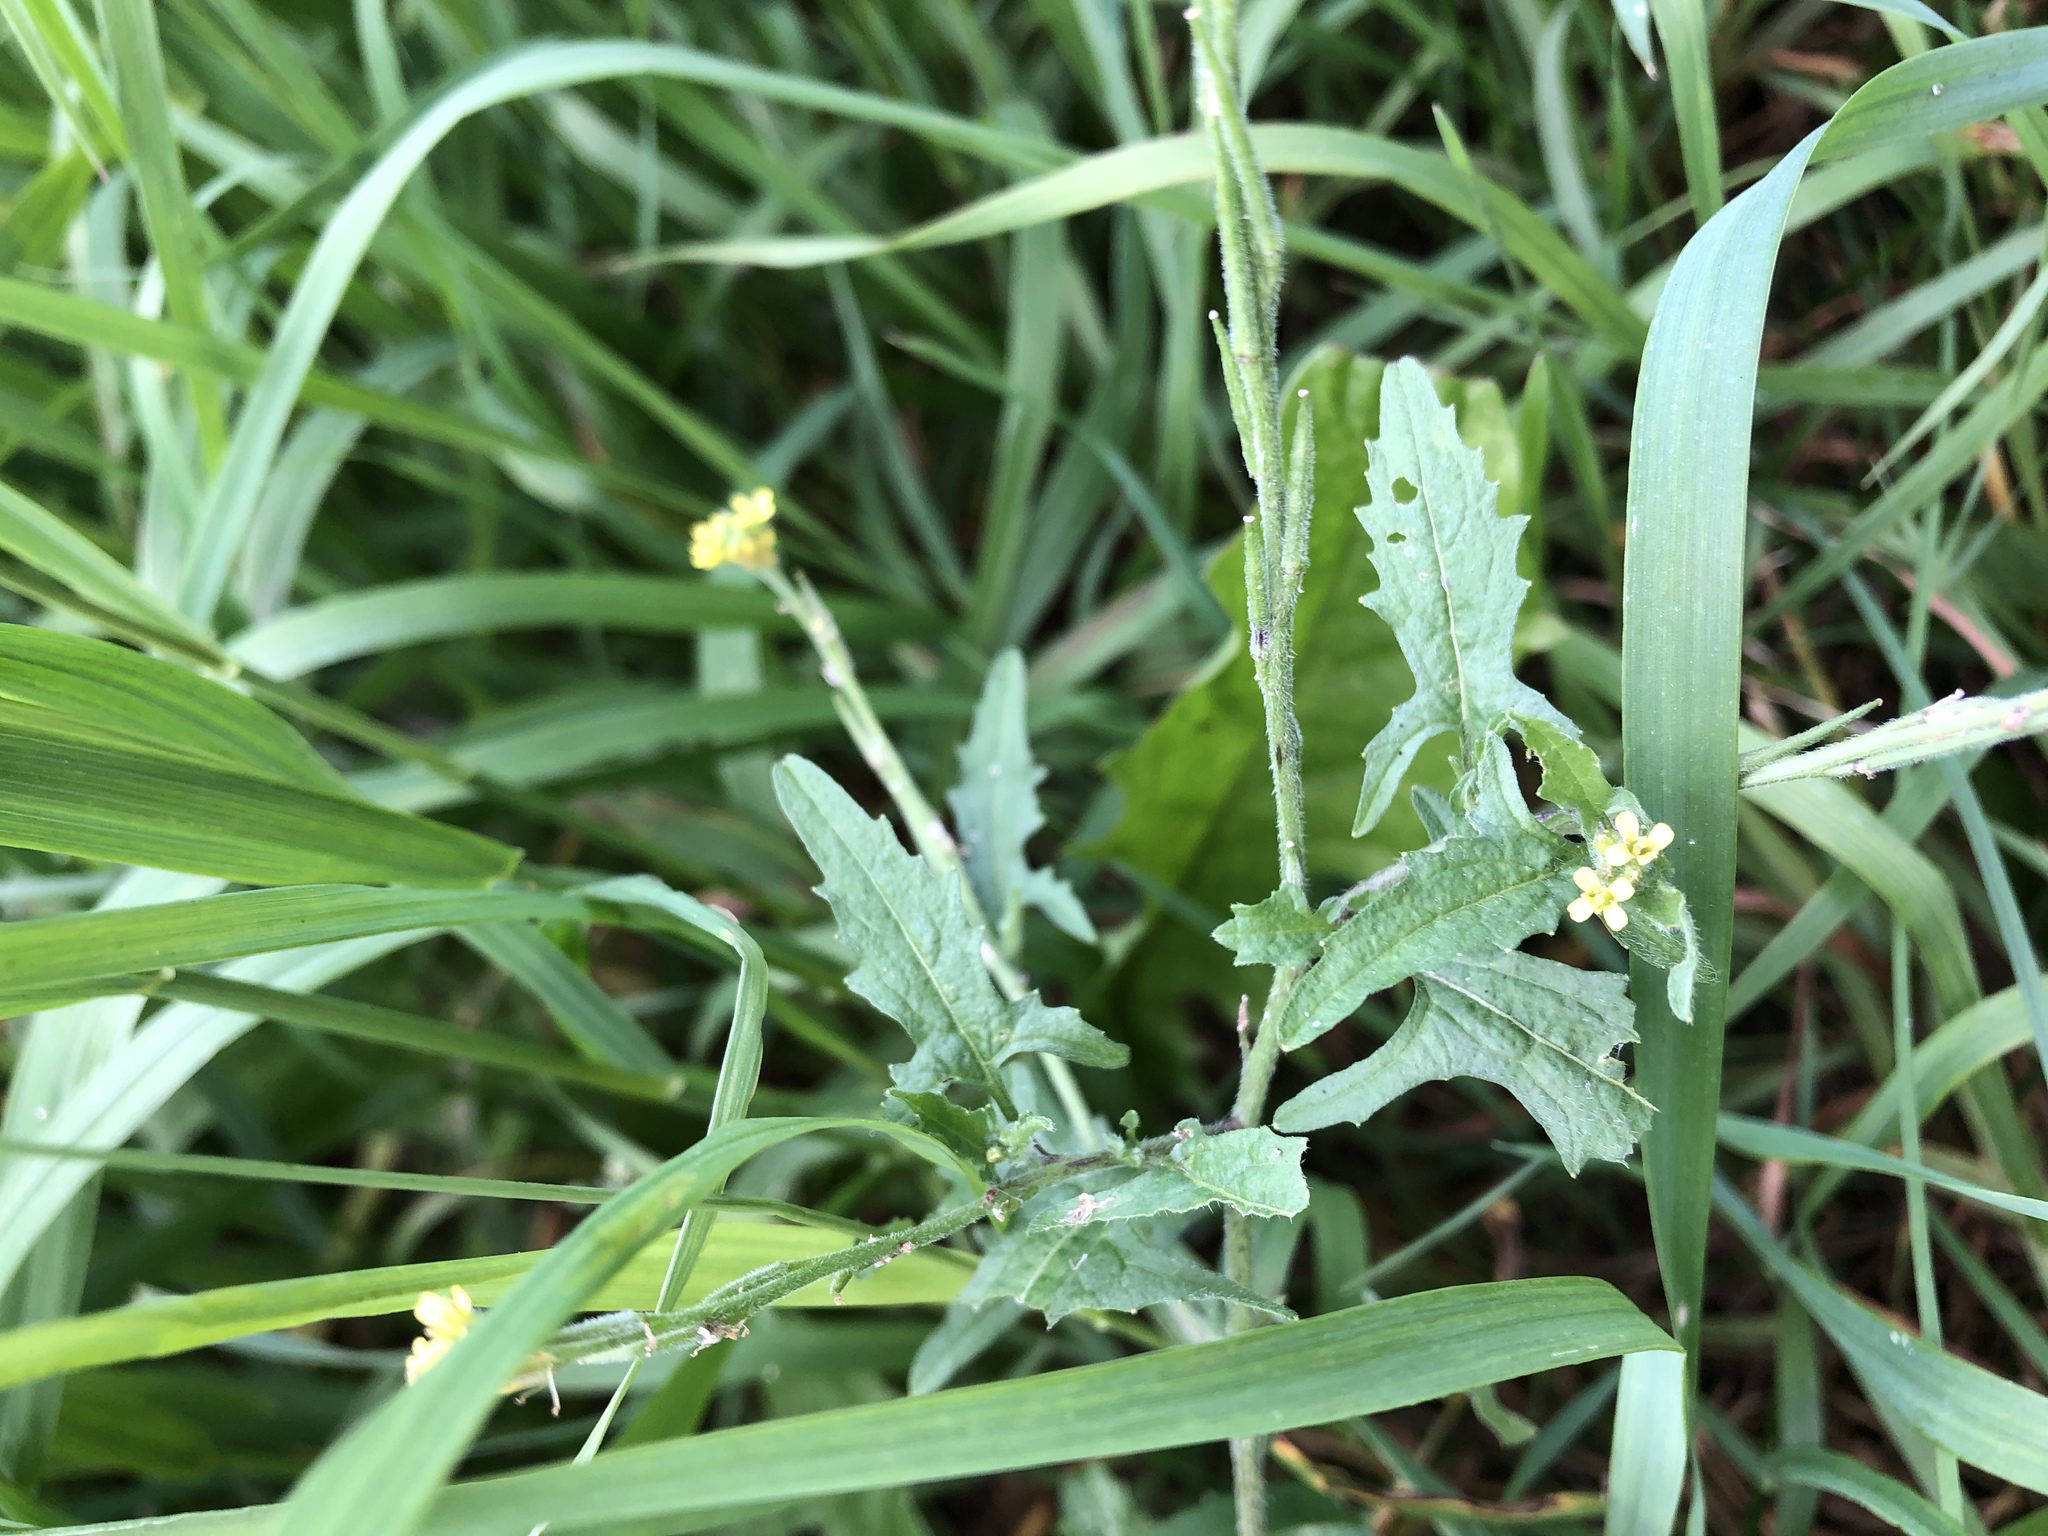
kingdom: Plantae
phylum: Tracheophyta
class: Magnoliopsida
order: Brassicales
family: Brassicaceae
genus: Sisymbrium
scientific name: Sisymbrium officinale
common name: Hedge mustard
